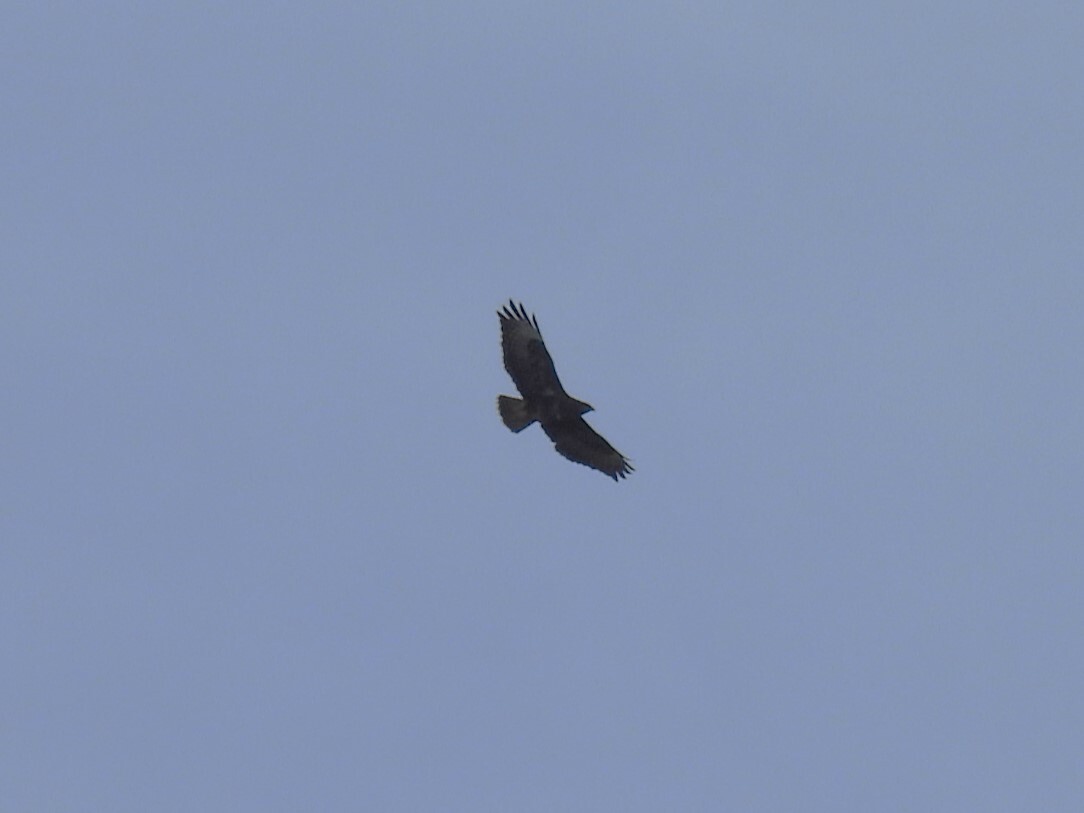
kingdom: Animalia
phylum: Chordata
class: Aves
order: Accipitriformes
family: Accipitridae
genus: Buteo
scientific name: Buteo buteo
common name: Common buzzard
